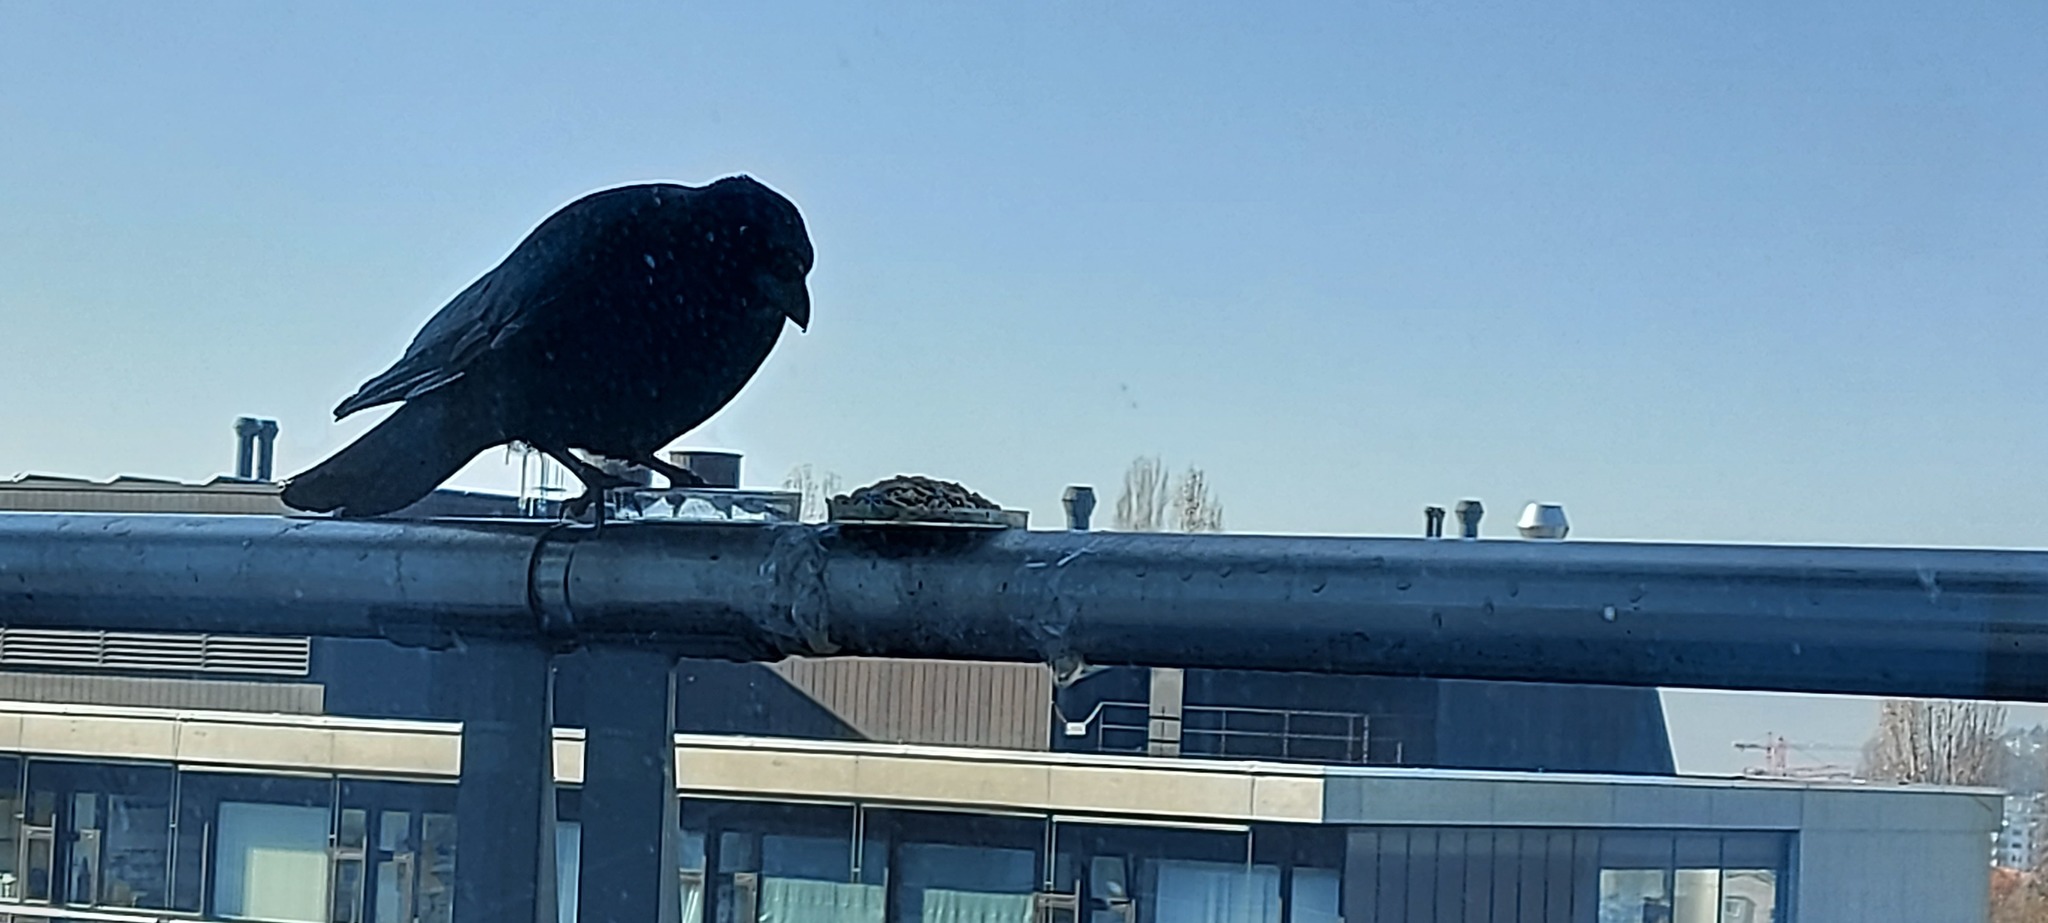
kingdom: Animalia
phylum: Chordata
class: Aves
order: Passeriformes
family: Corvidae
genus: Corvus
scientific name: Corvus corone
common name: Carrion crow
